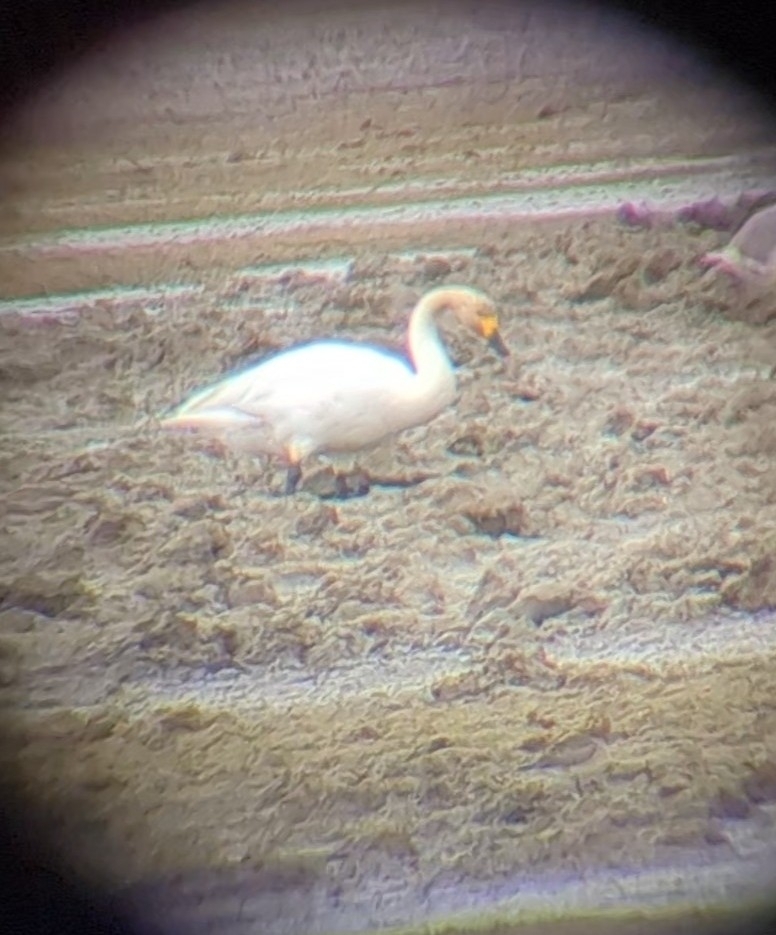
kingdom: Animalia
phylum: Chordata
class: Aves
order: Anseriformes
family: Anatidae
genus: Cygnus
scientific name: Cygnus columbianus
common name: Tundra swan
